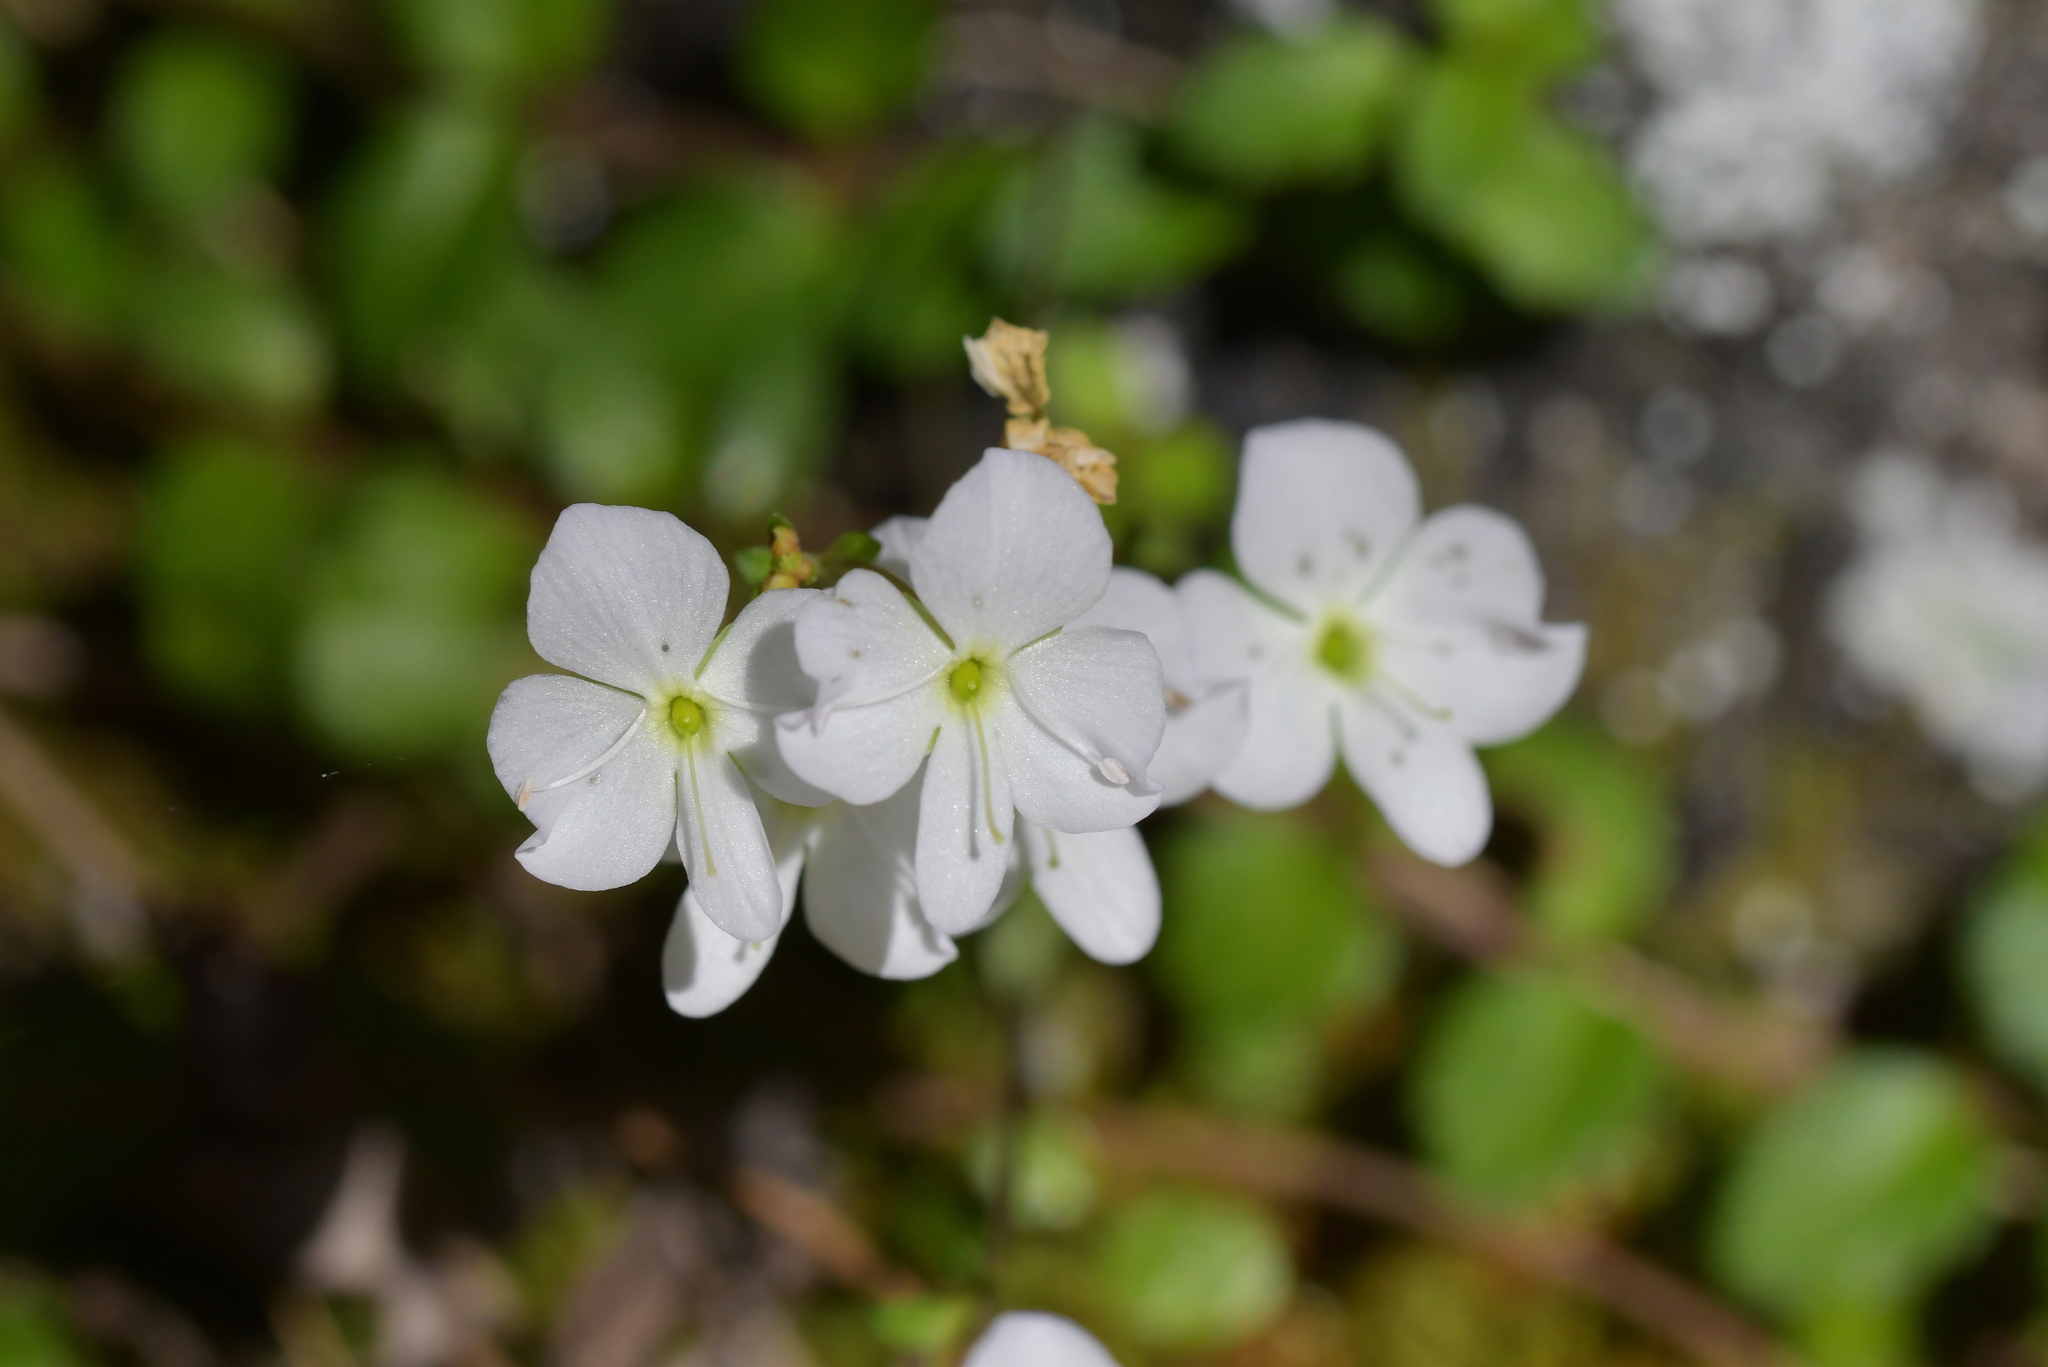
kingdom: Plantae
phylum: Tracheophyta
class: Magnoliopsida
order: Lamiales
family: Plantaginaceae
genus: Veronica
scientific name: Veronica lyallii
